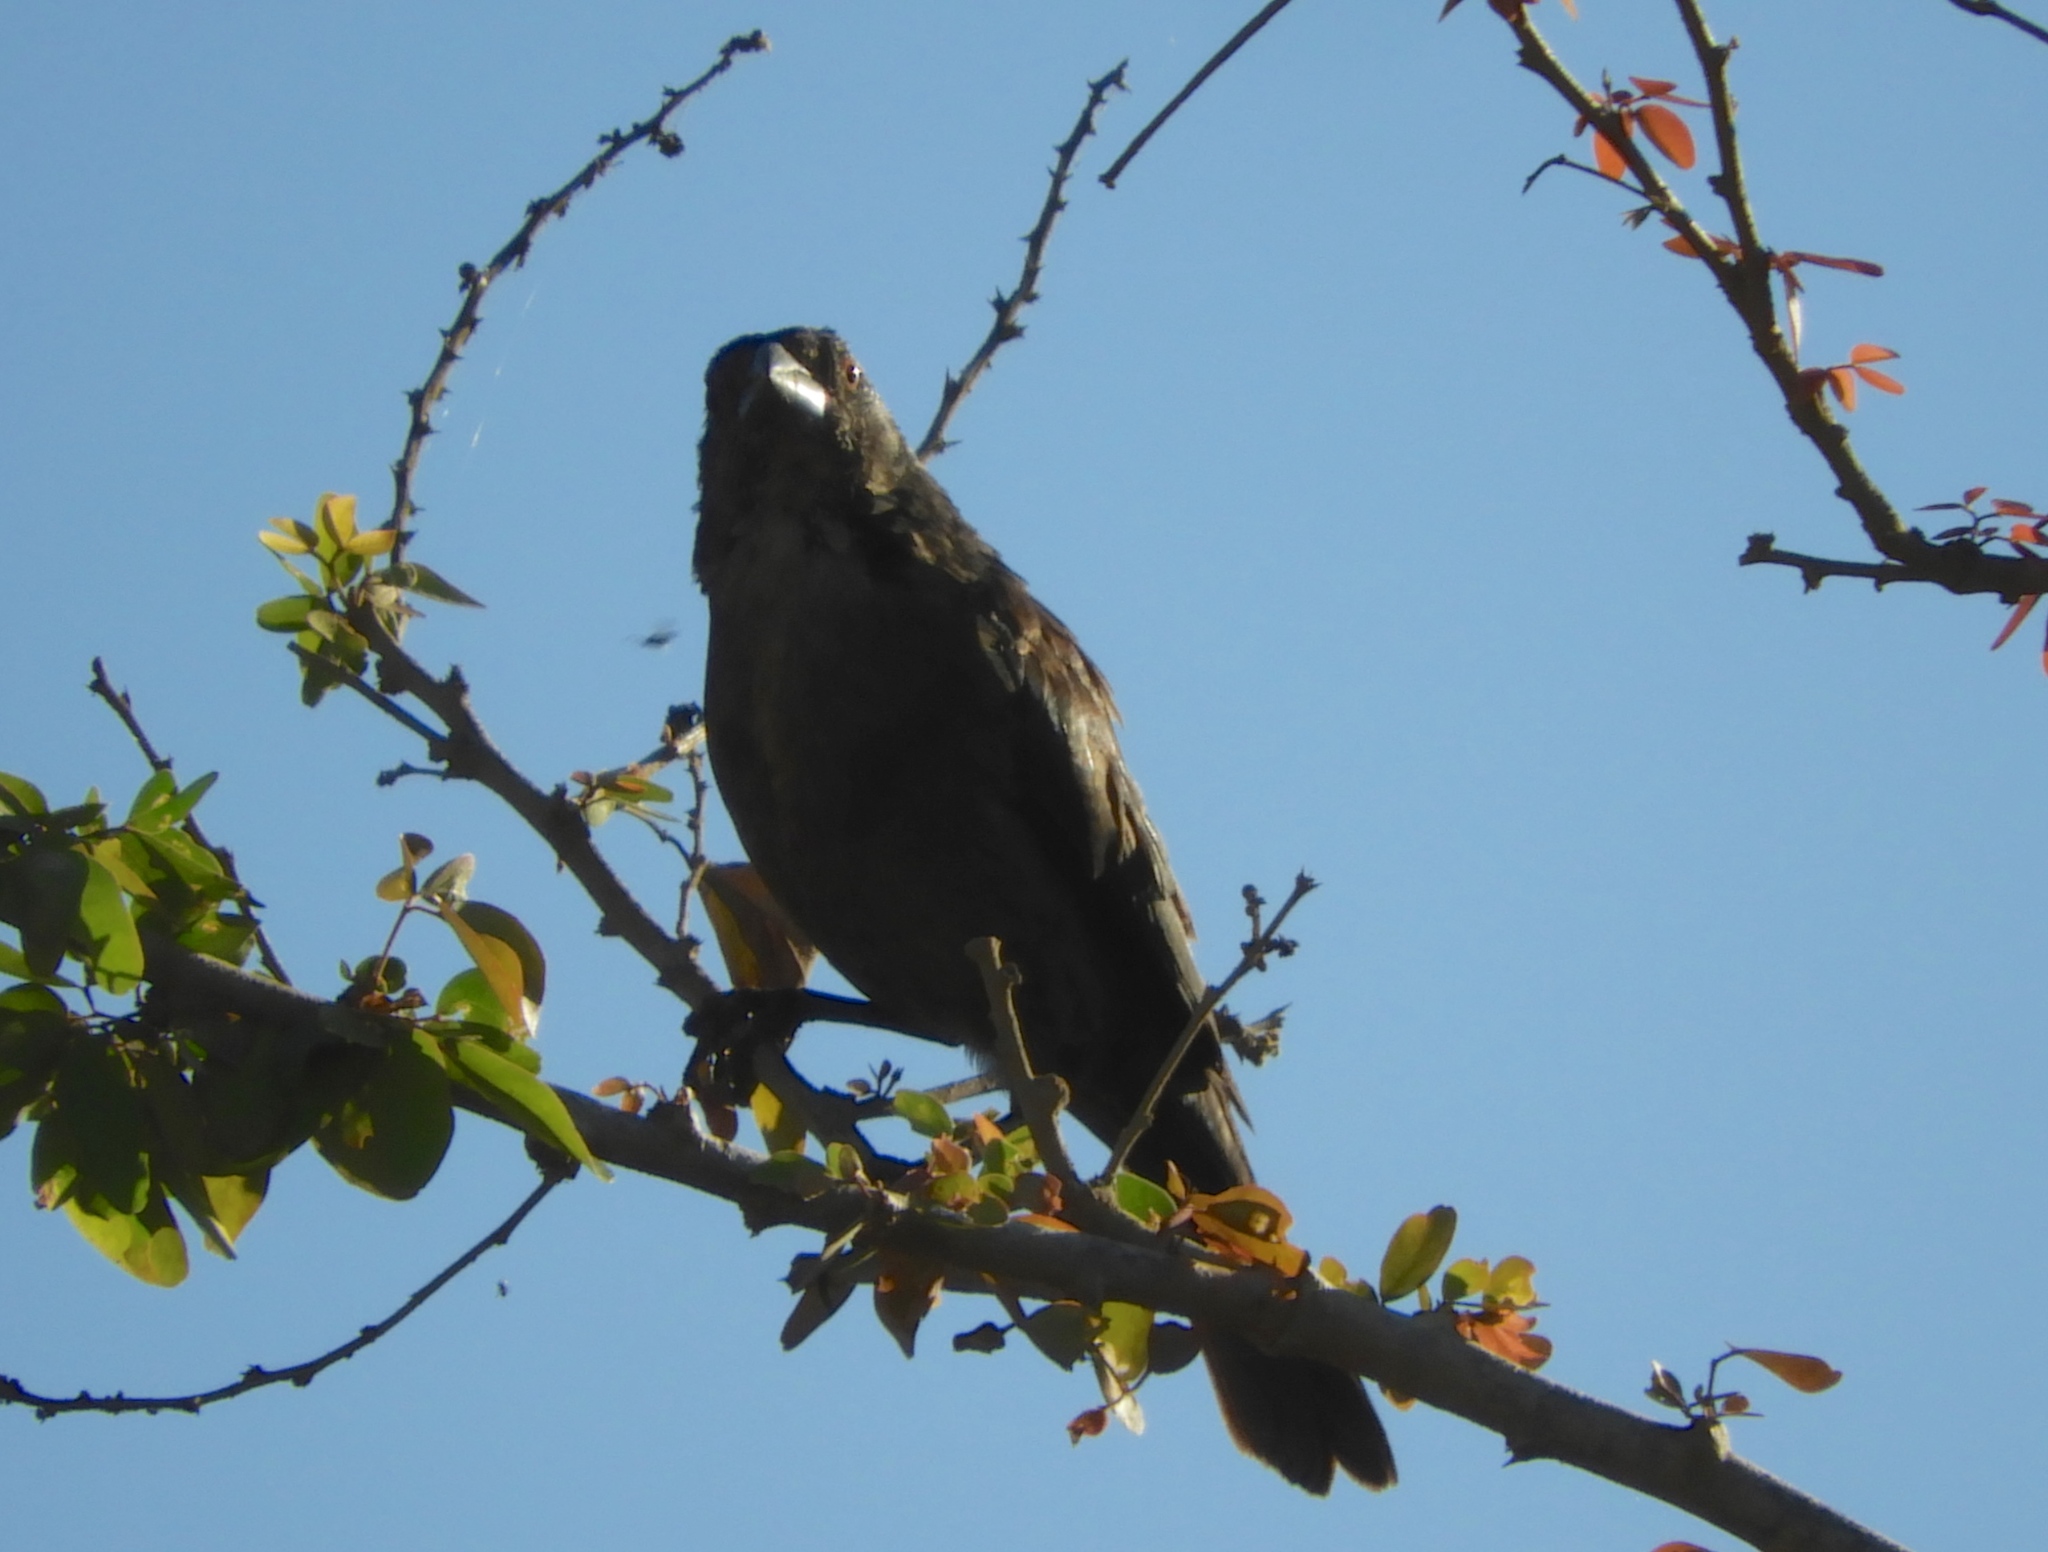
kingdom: Animalia
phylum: Chordata
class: Aves
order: Passeriformes
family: Icteridae
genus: Molothrus
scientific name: Molothrus aeneus
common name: Bronzed cowbird
